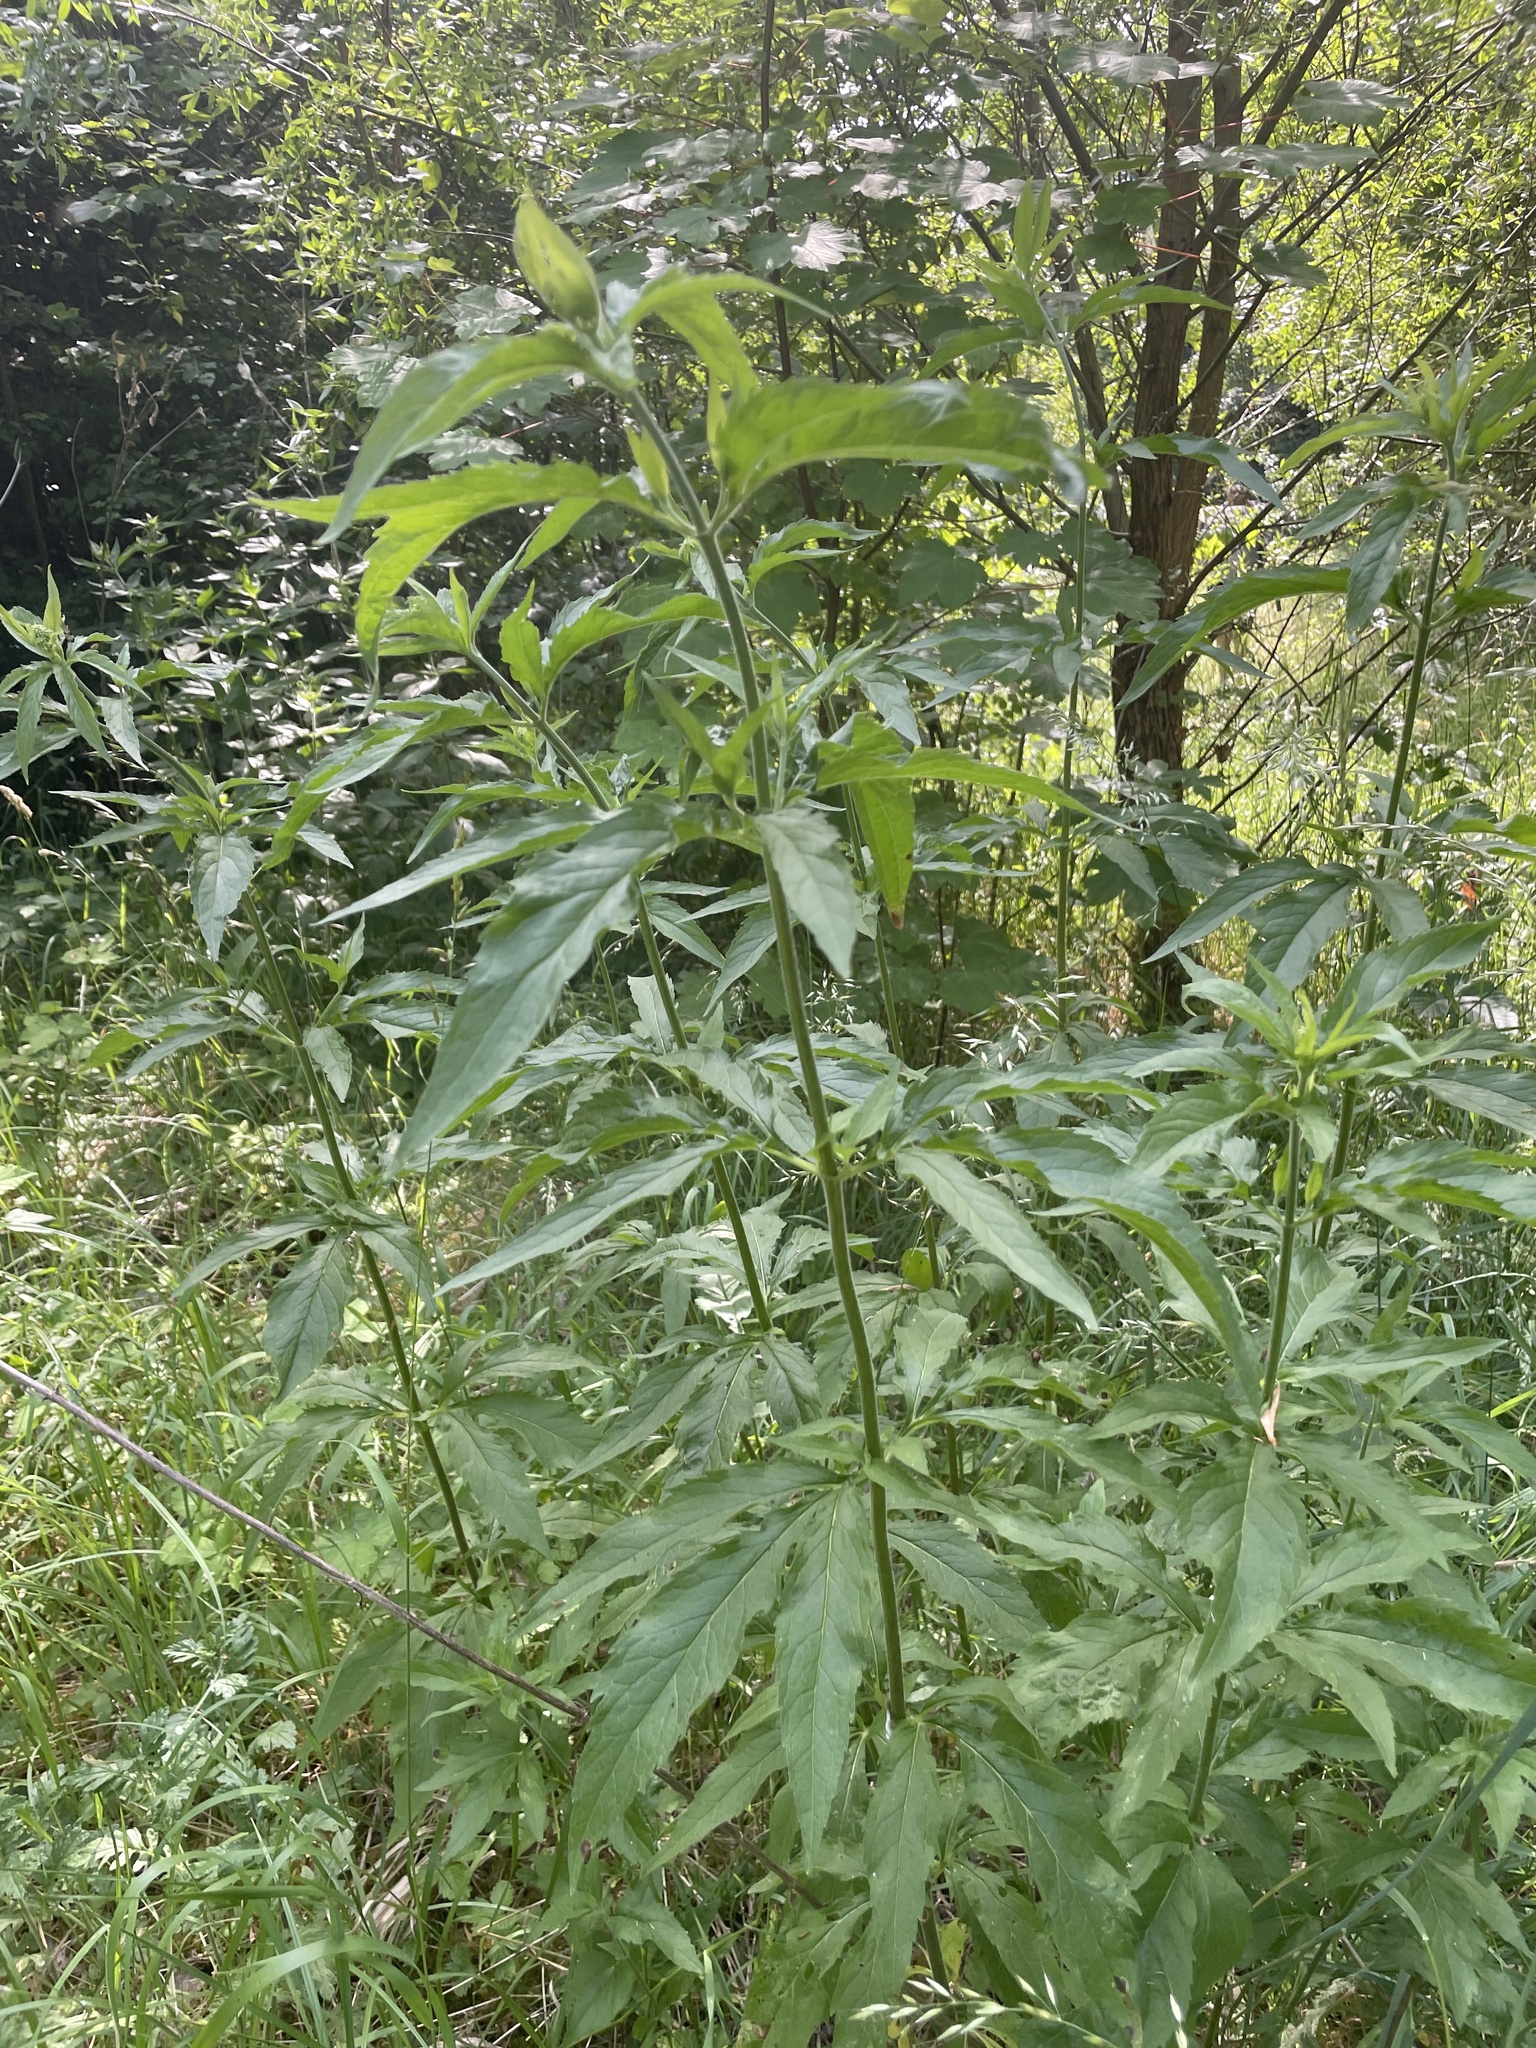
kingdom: Plantae
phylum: Tracheophyta
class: Magnoliopsida
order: Asterales
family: Asteraceae
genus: Eupatorium
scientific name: Eupatorium cannabinum
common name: Hemp-agrimony
